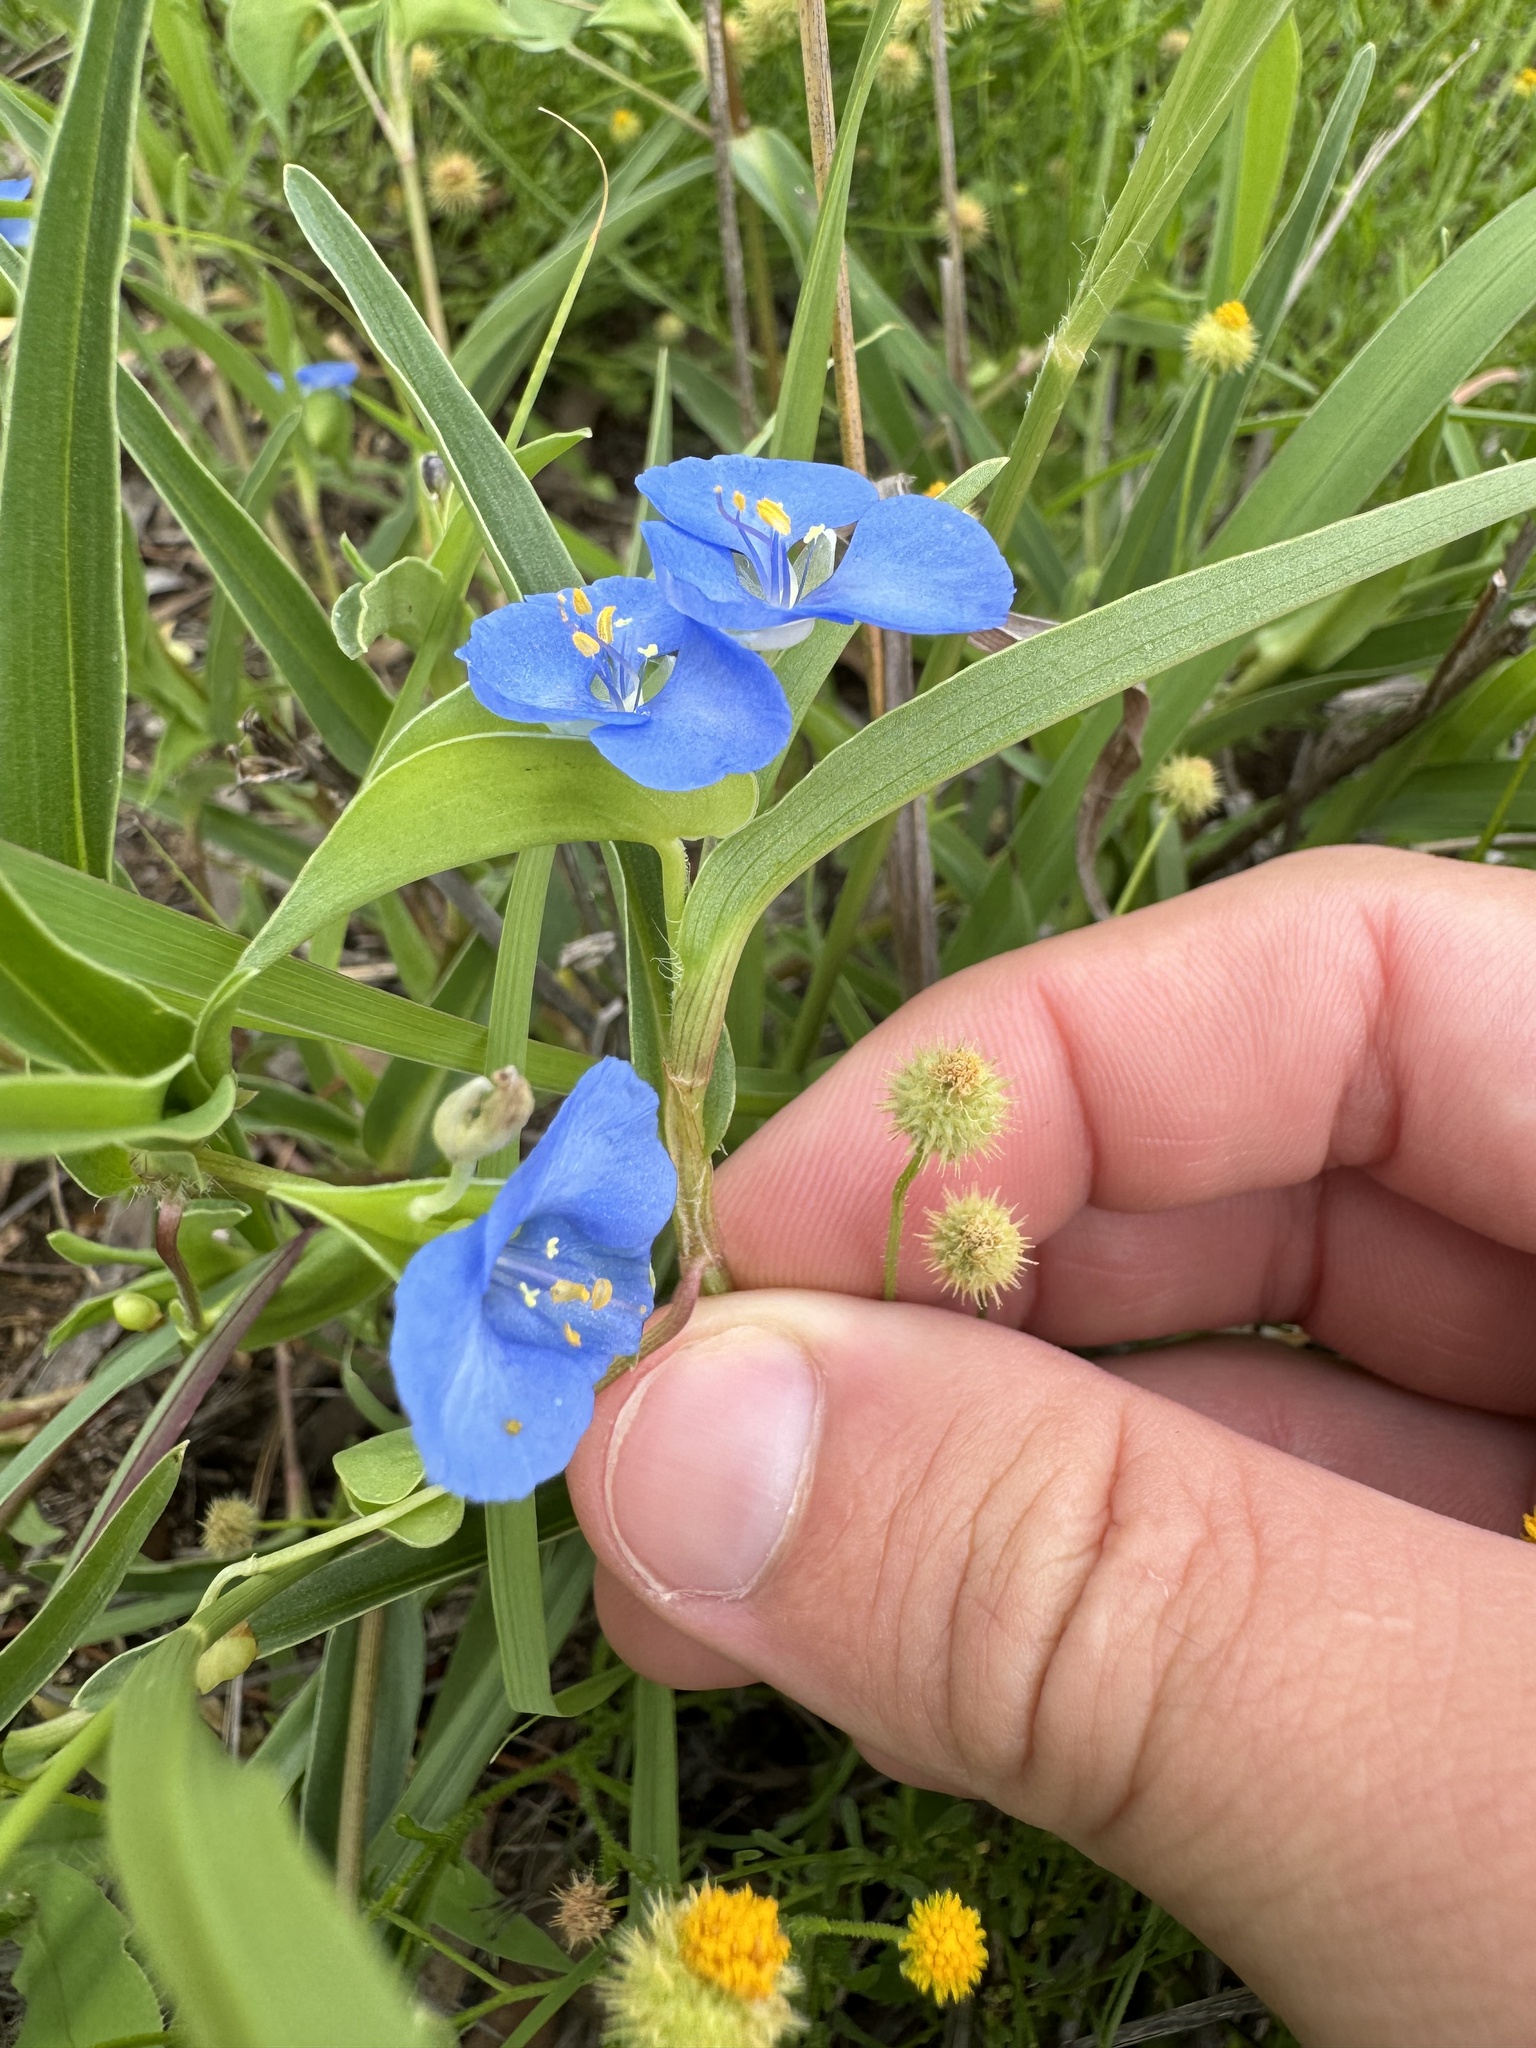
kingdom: Plantae
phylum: Tracheophyta
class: Liliopsida
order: Commelinales
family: Commelinaceae
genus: Commelina
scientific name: Commelina lanceolata
